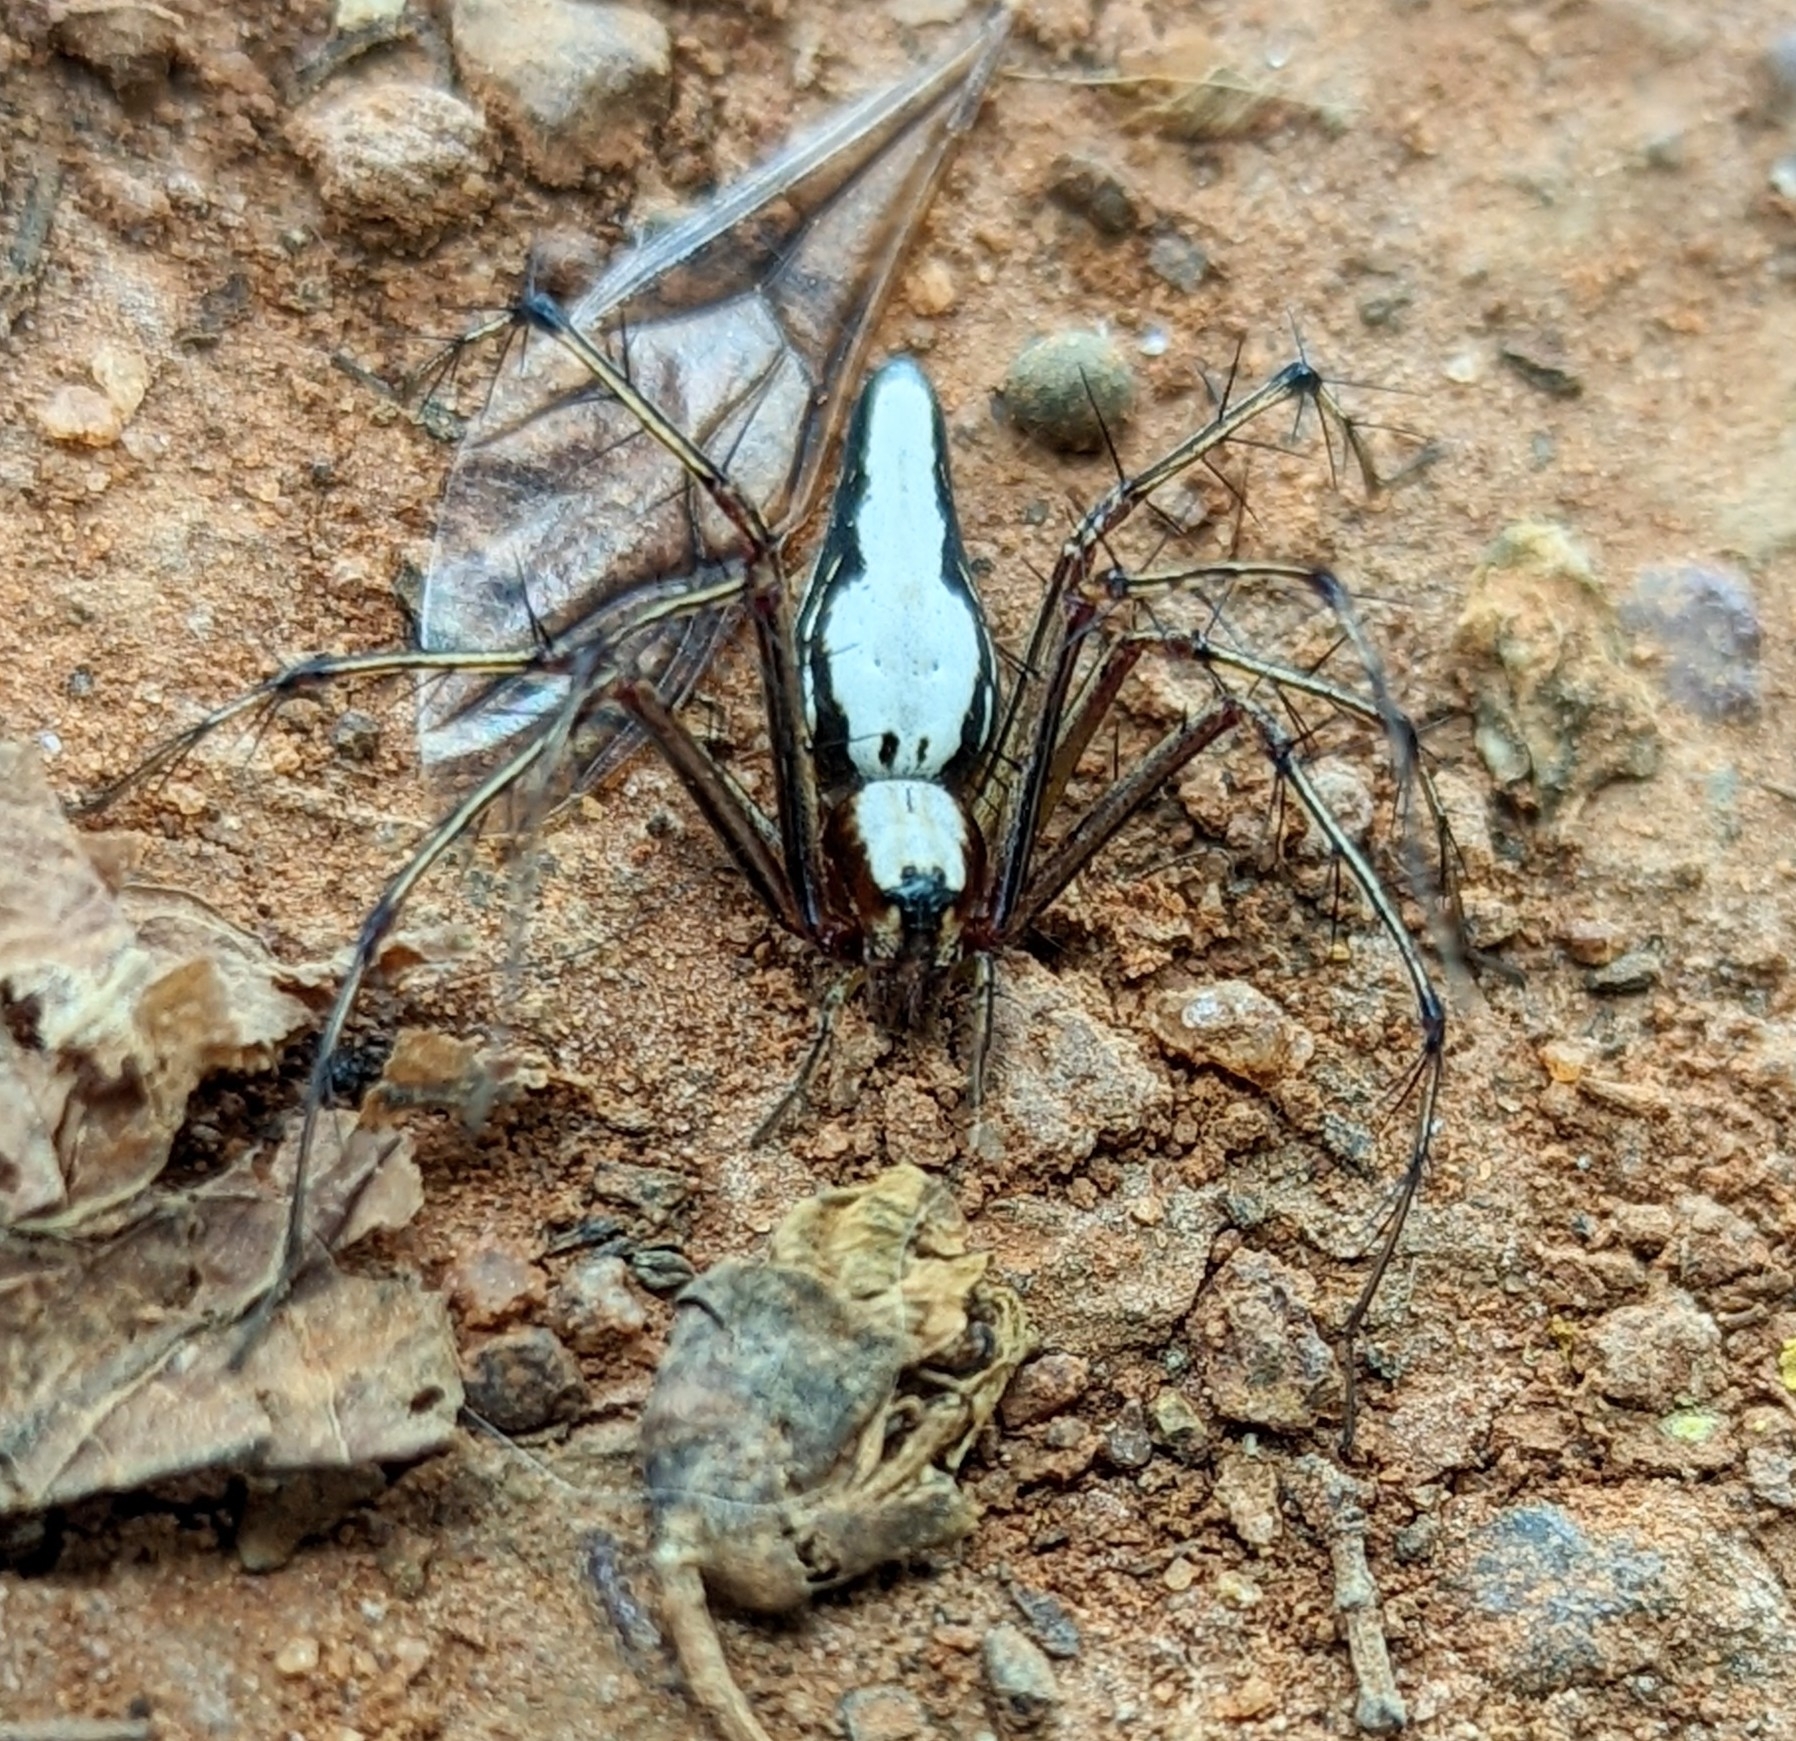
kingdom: Animalia
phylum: Arthropoda
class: Arachnida
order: Araneae
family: Oxyopidae
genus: Oxyopes
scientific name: Oxyopes shweta
